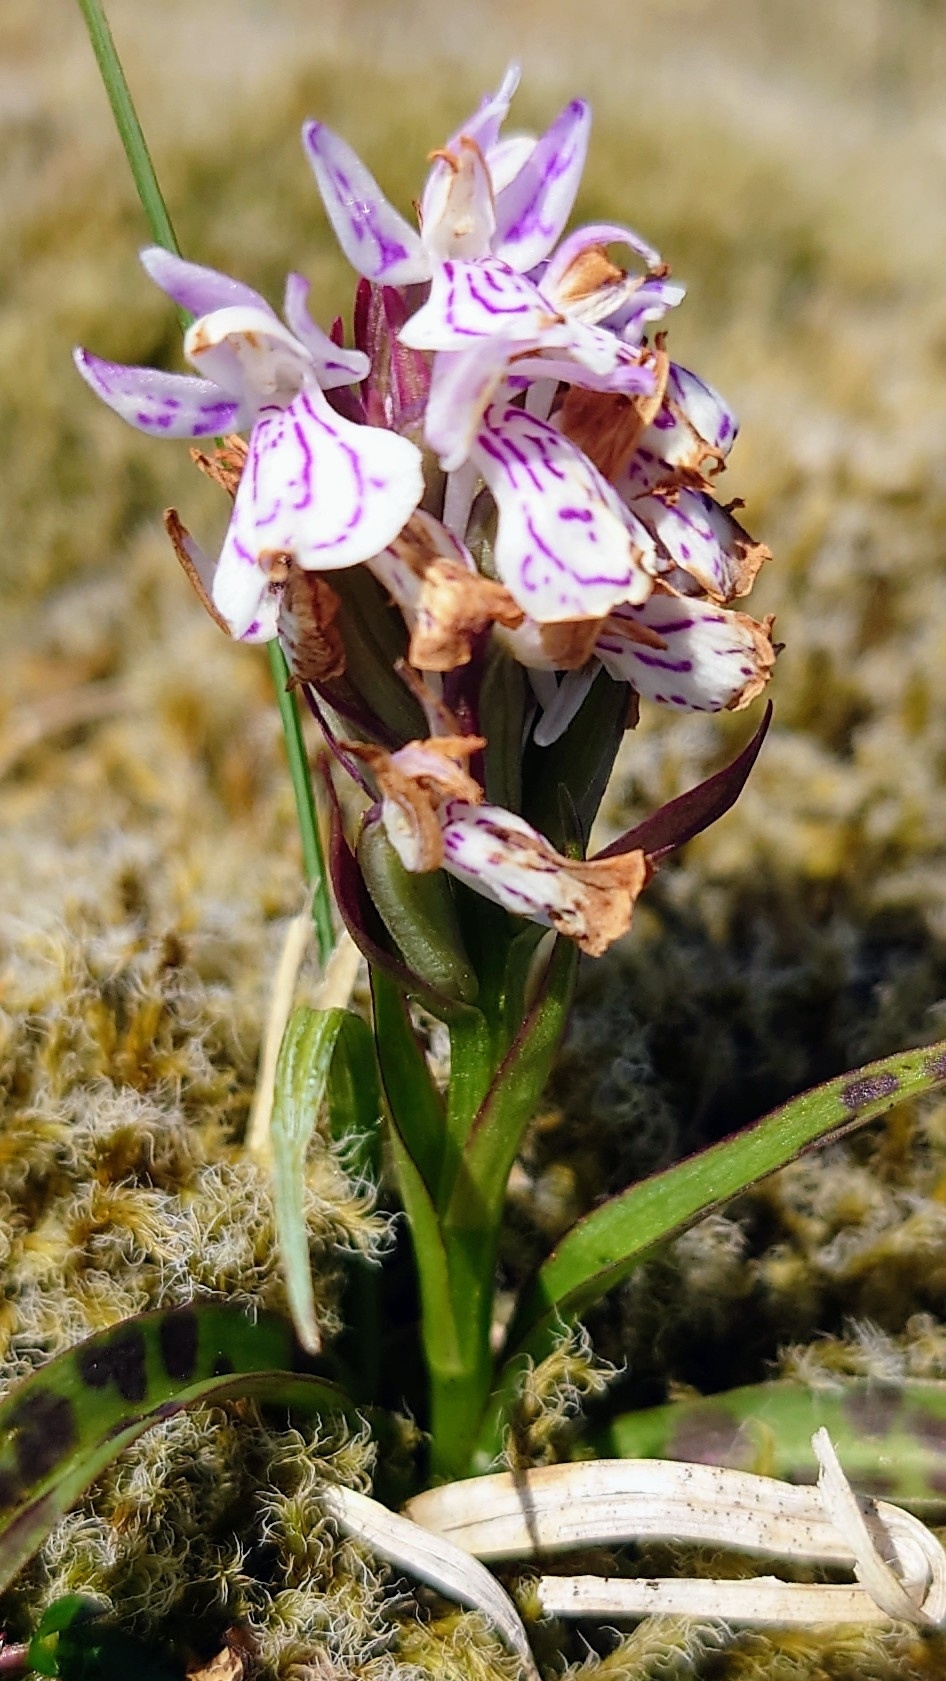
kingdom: Plantae
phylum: Tracheophyta
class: Liliopsida
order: Asparagales
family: Orchidaceae
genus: Dactylorhiza
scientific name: Dactylorhiza maculata
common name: Heath spotted-orchid
